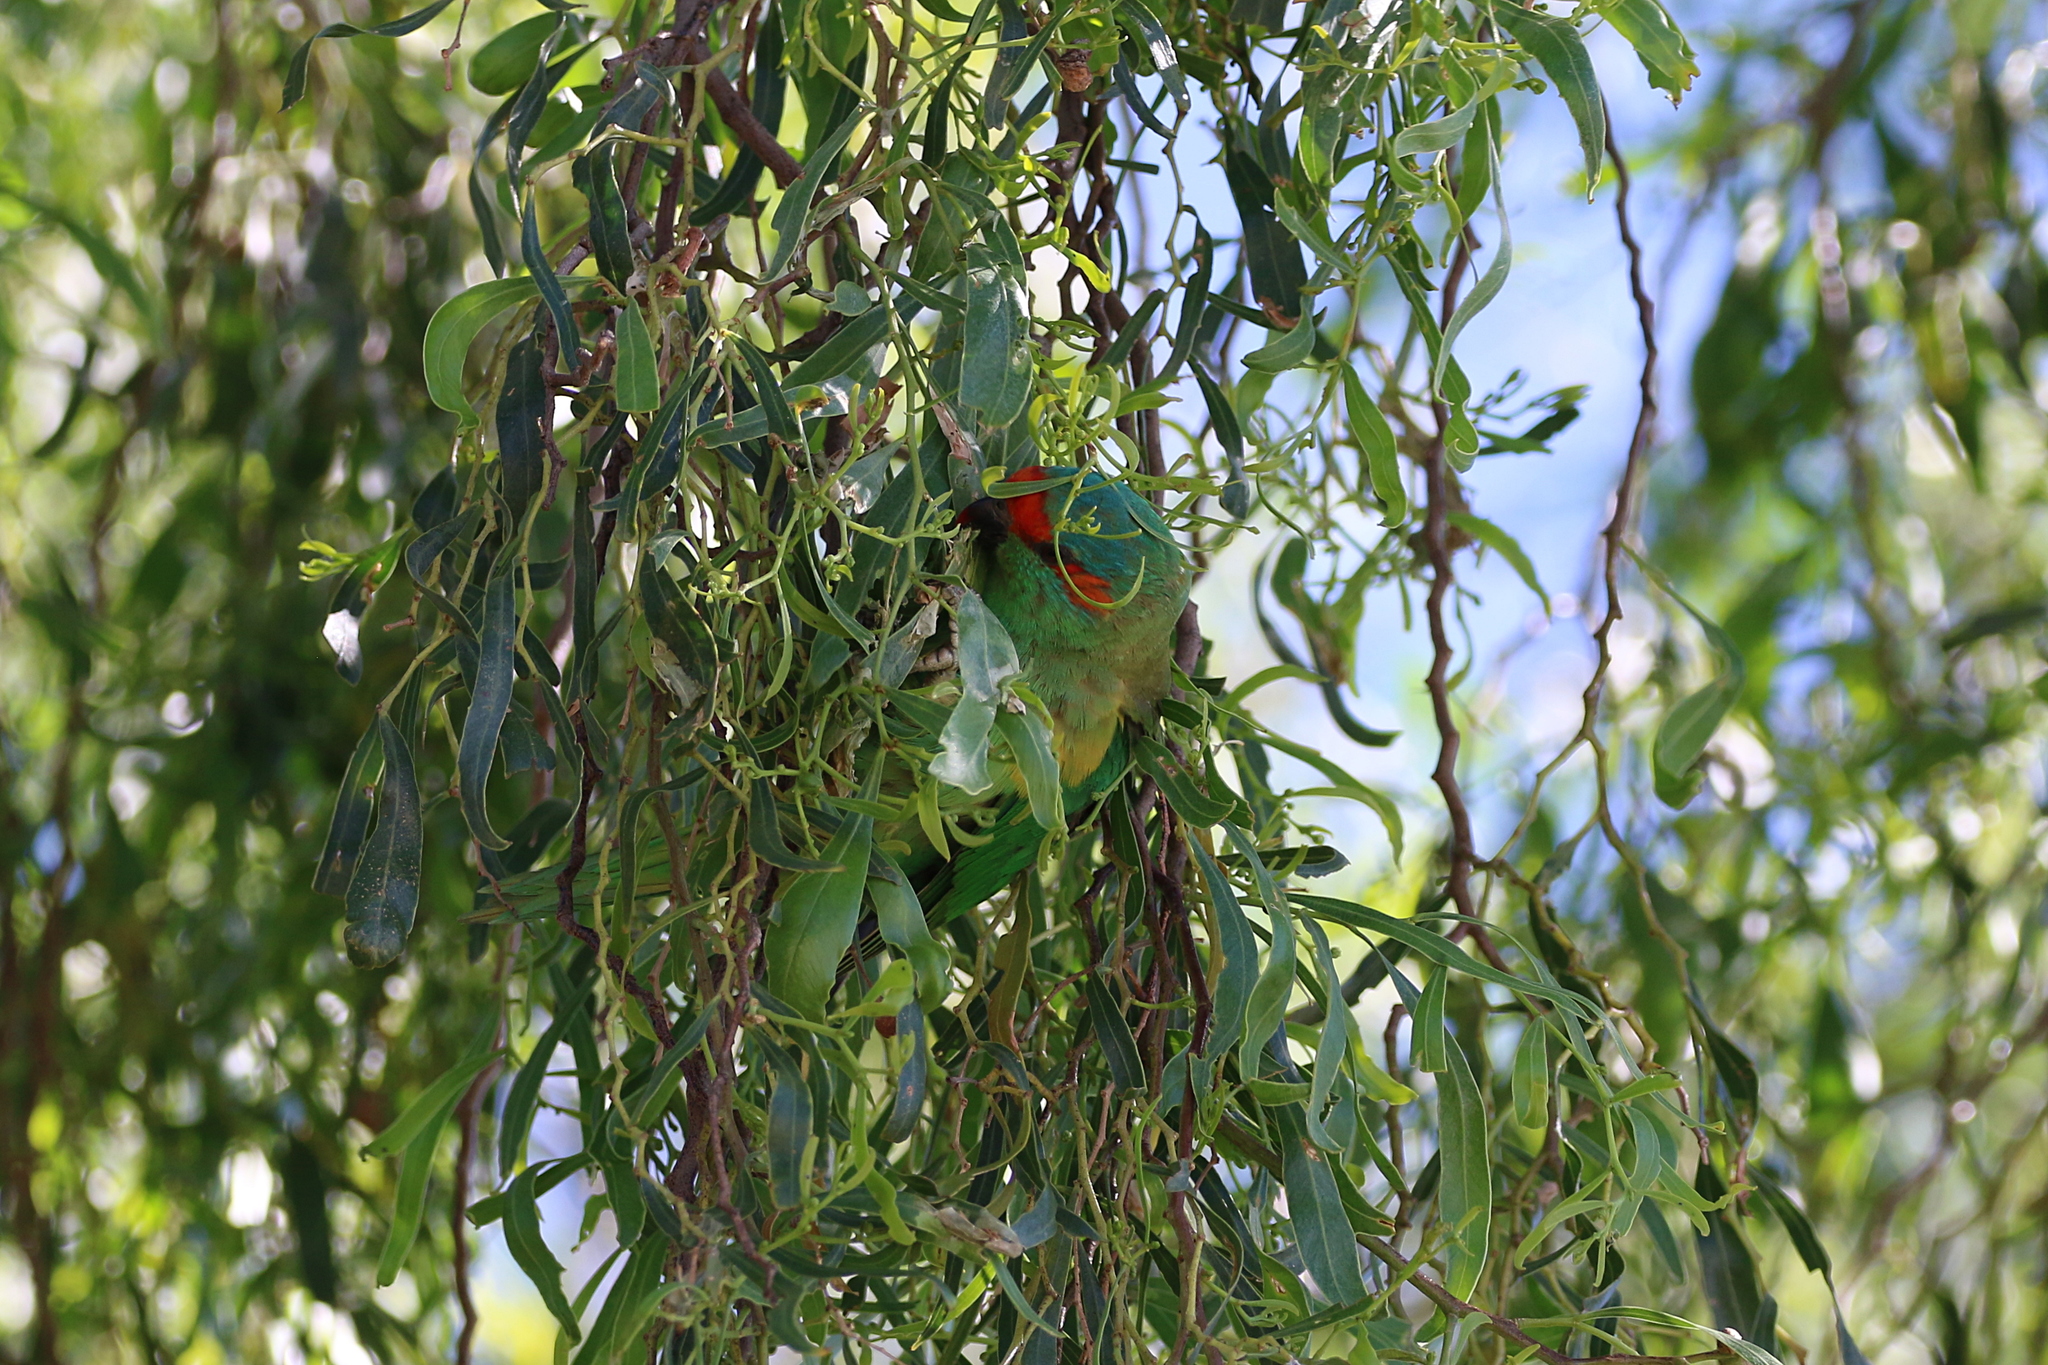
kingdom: Animalia
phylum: Chordata
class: Aves
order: Psittaciformes
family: Psittacidae
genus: Glossopsitta
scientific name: Glossopsitta concinna
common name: Musk lorikeet
